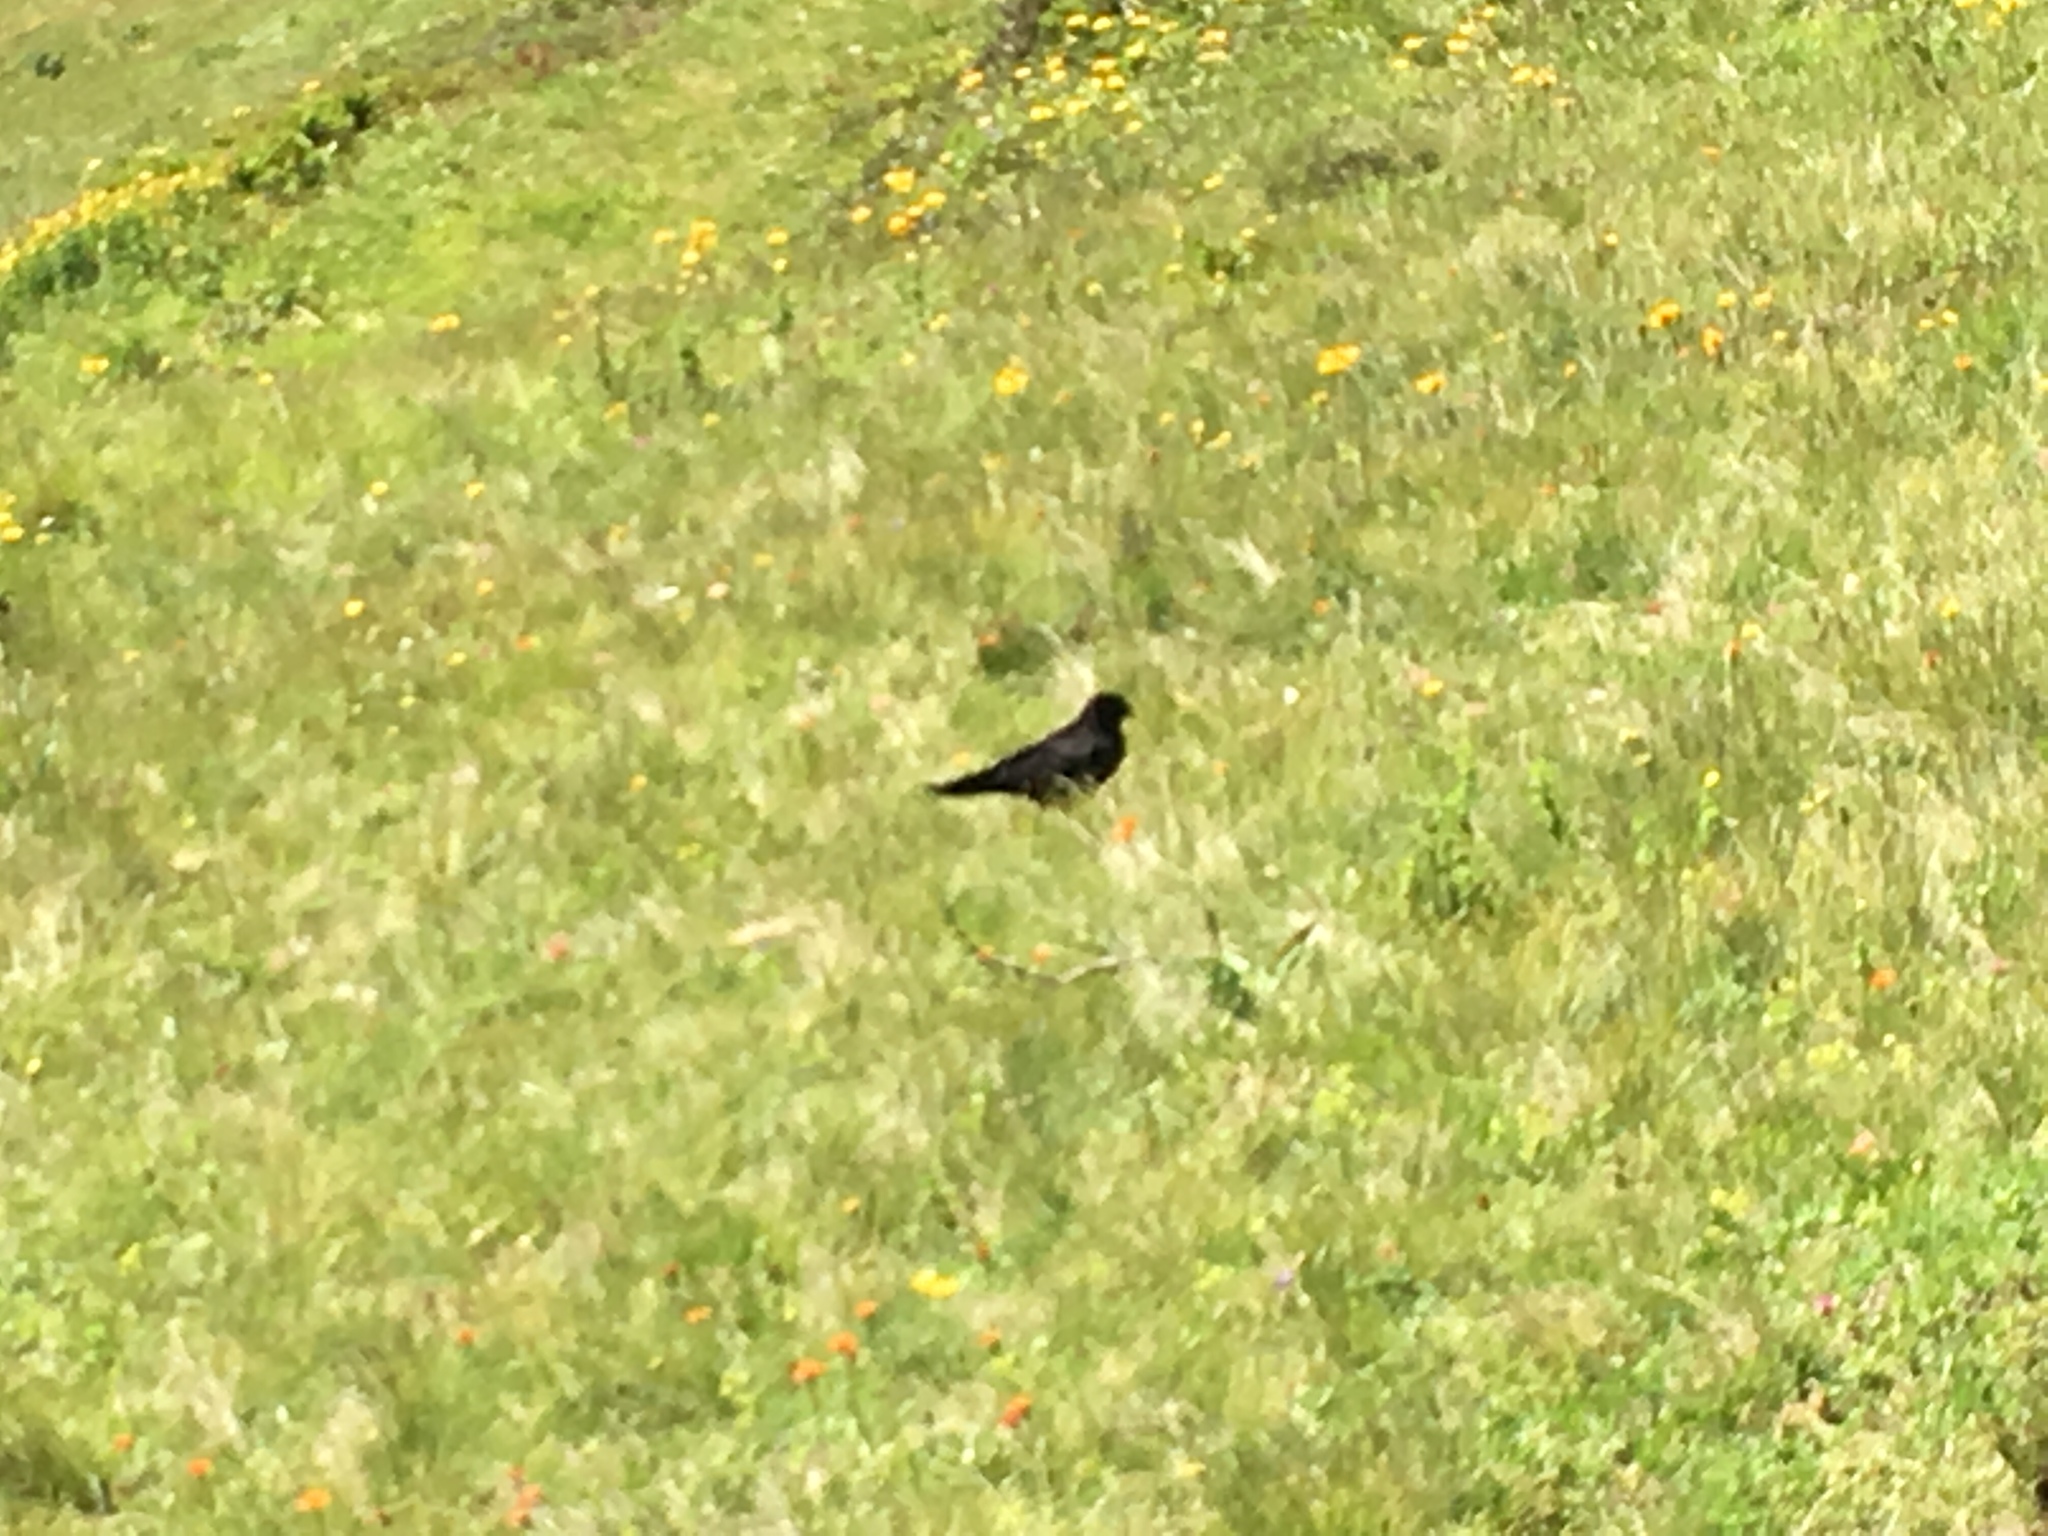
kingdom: Animalia
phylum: Chordata
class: Aves
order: Passeriformes
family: Corvidae
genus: Pyrrhocorax
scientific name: Pyrrhocorax graculus
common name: Alpine chough
